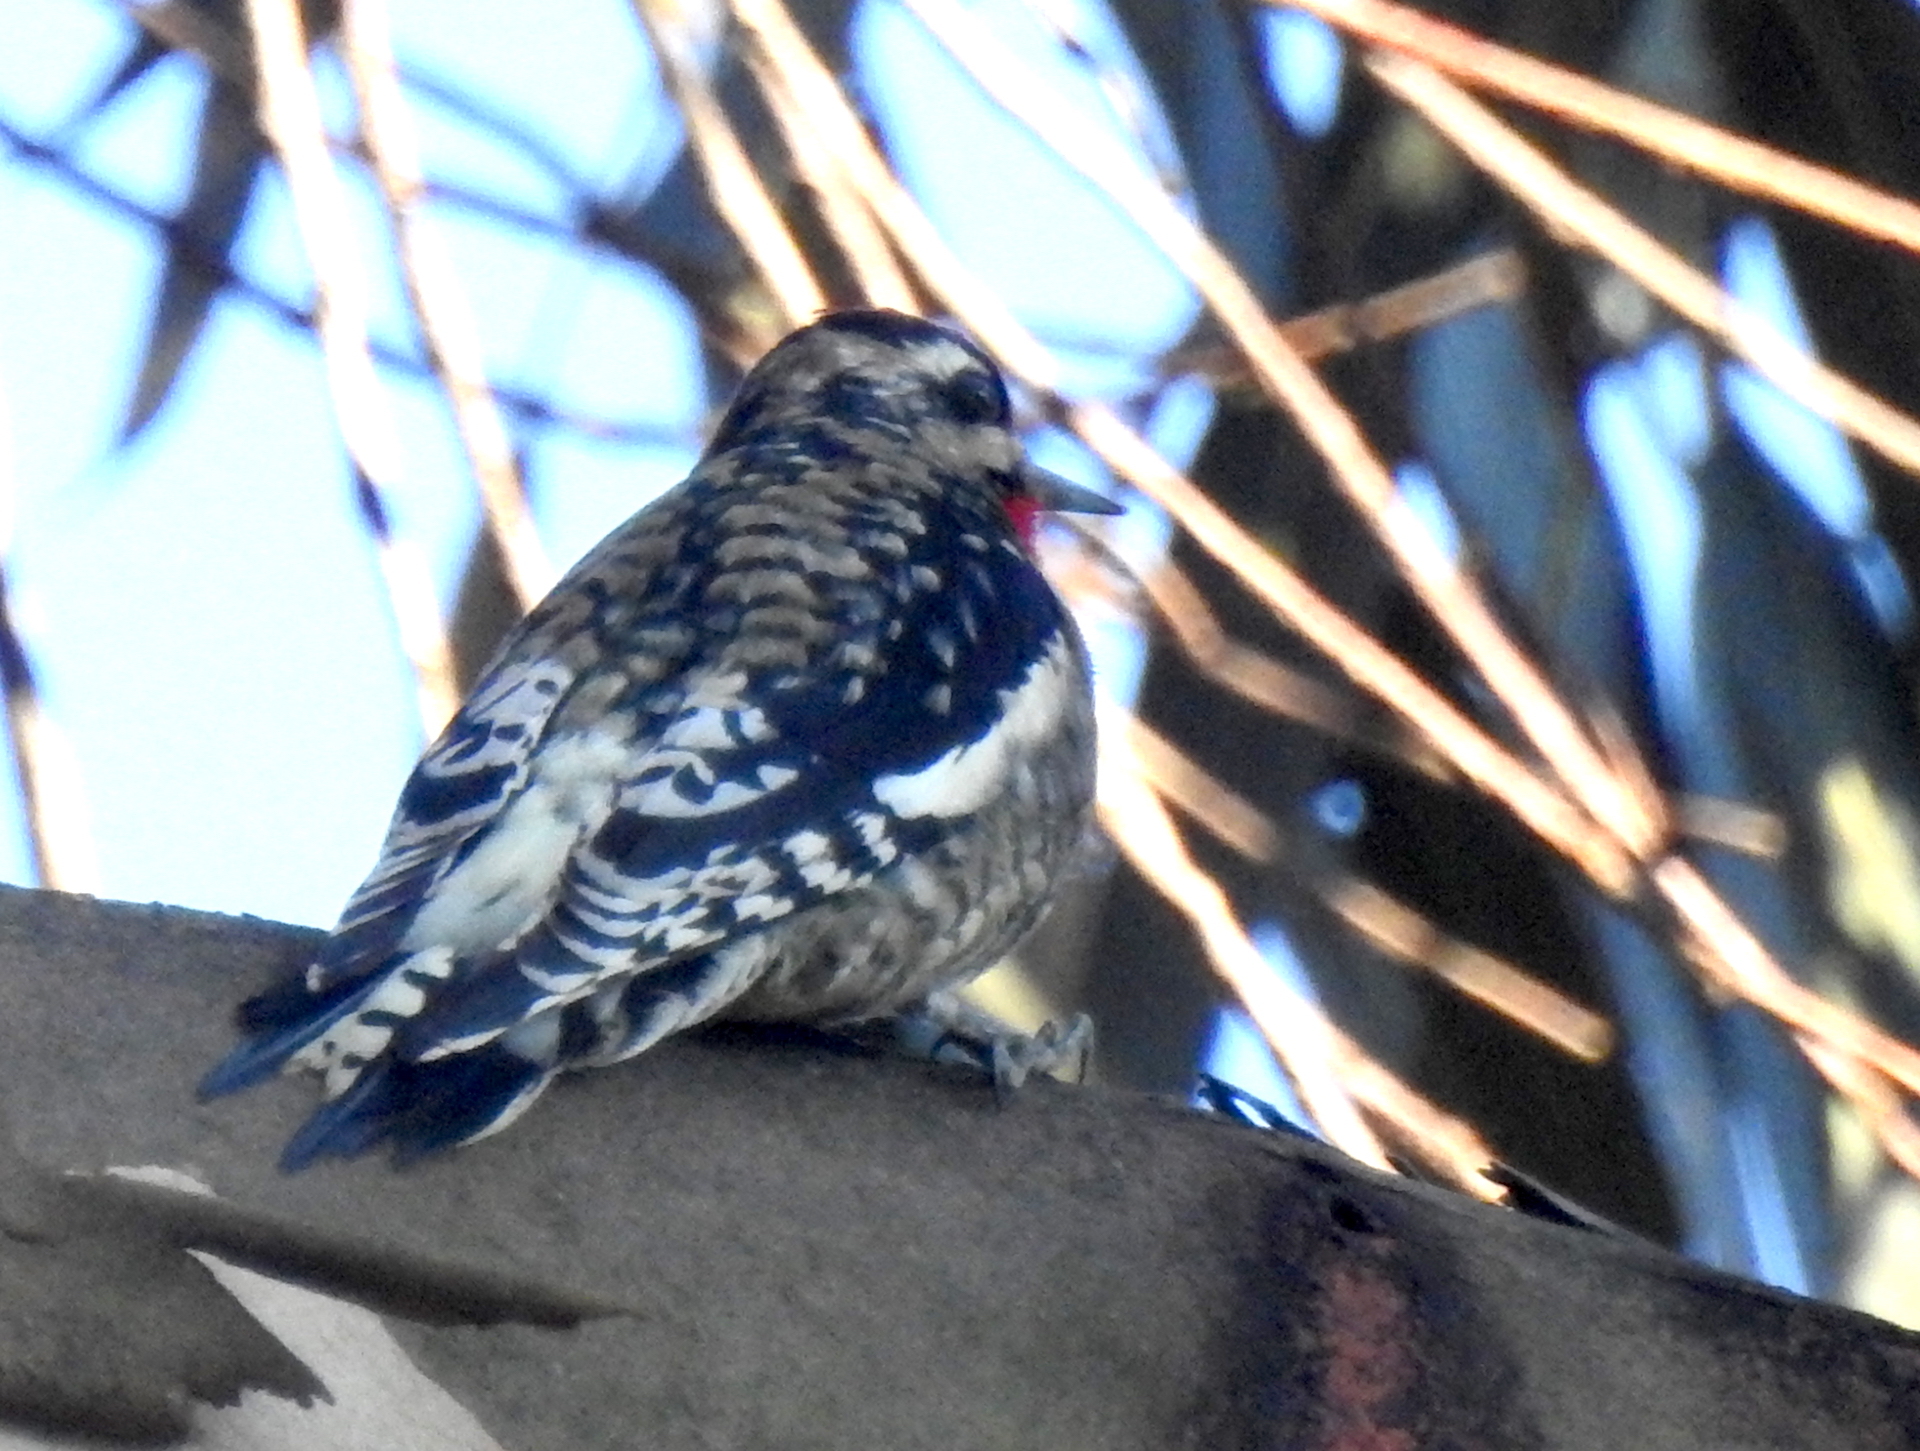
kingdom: Animalia
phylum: Chordata
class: Aves
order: Piciformes
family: Picidae
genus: Sphyrapicus
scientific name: Sphyrapicus varius
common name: Yellow-bellied sapsucker
